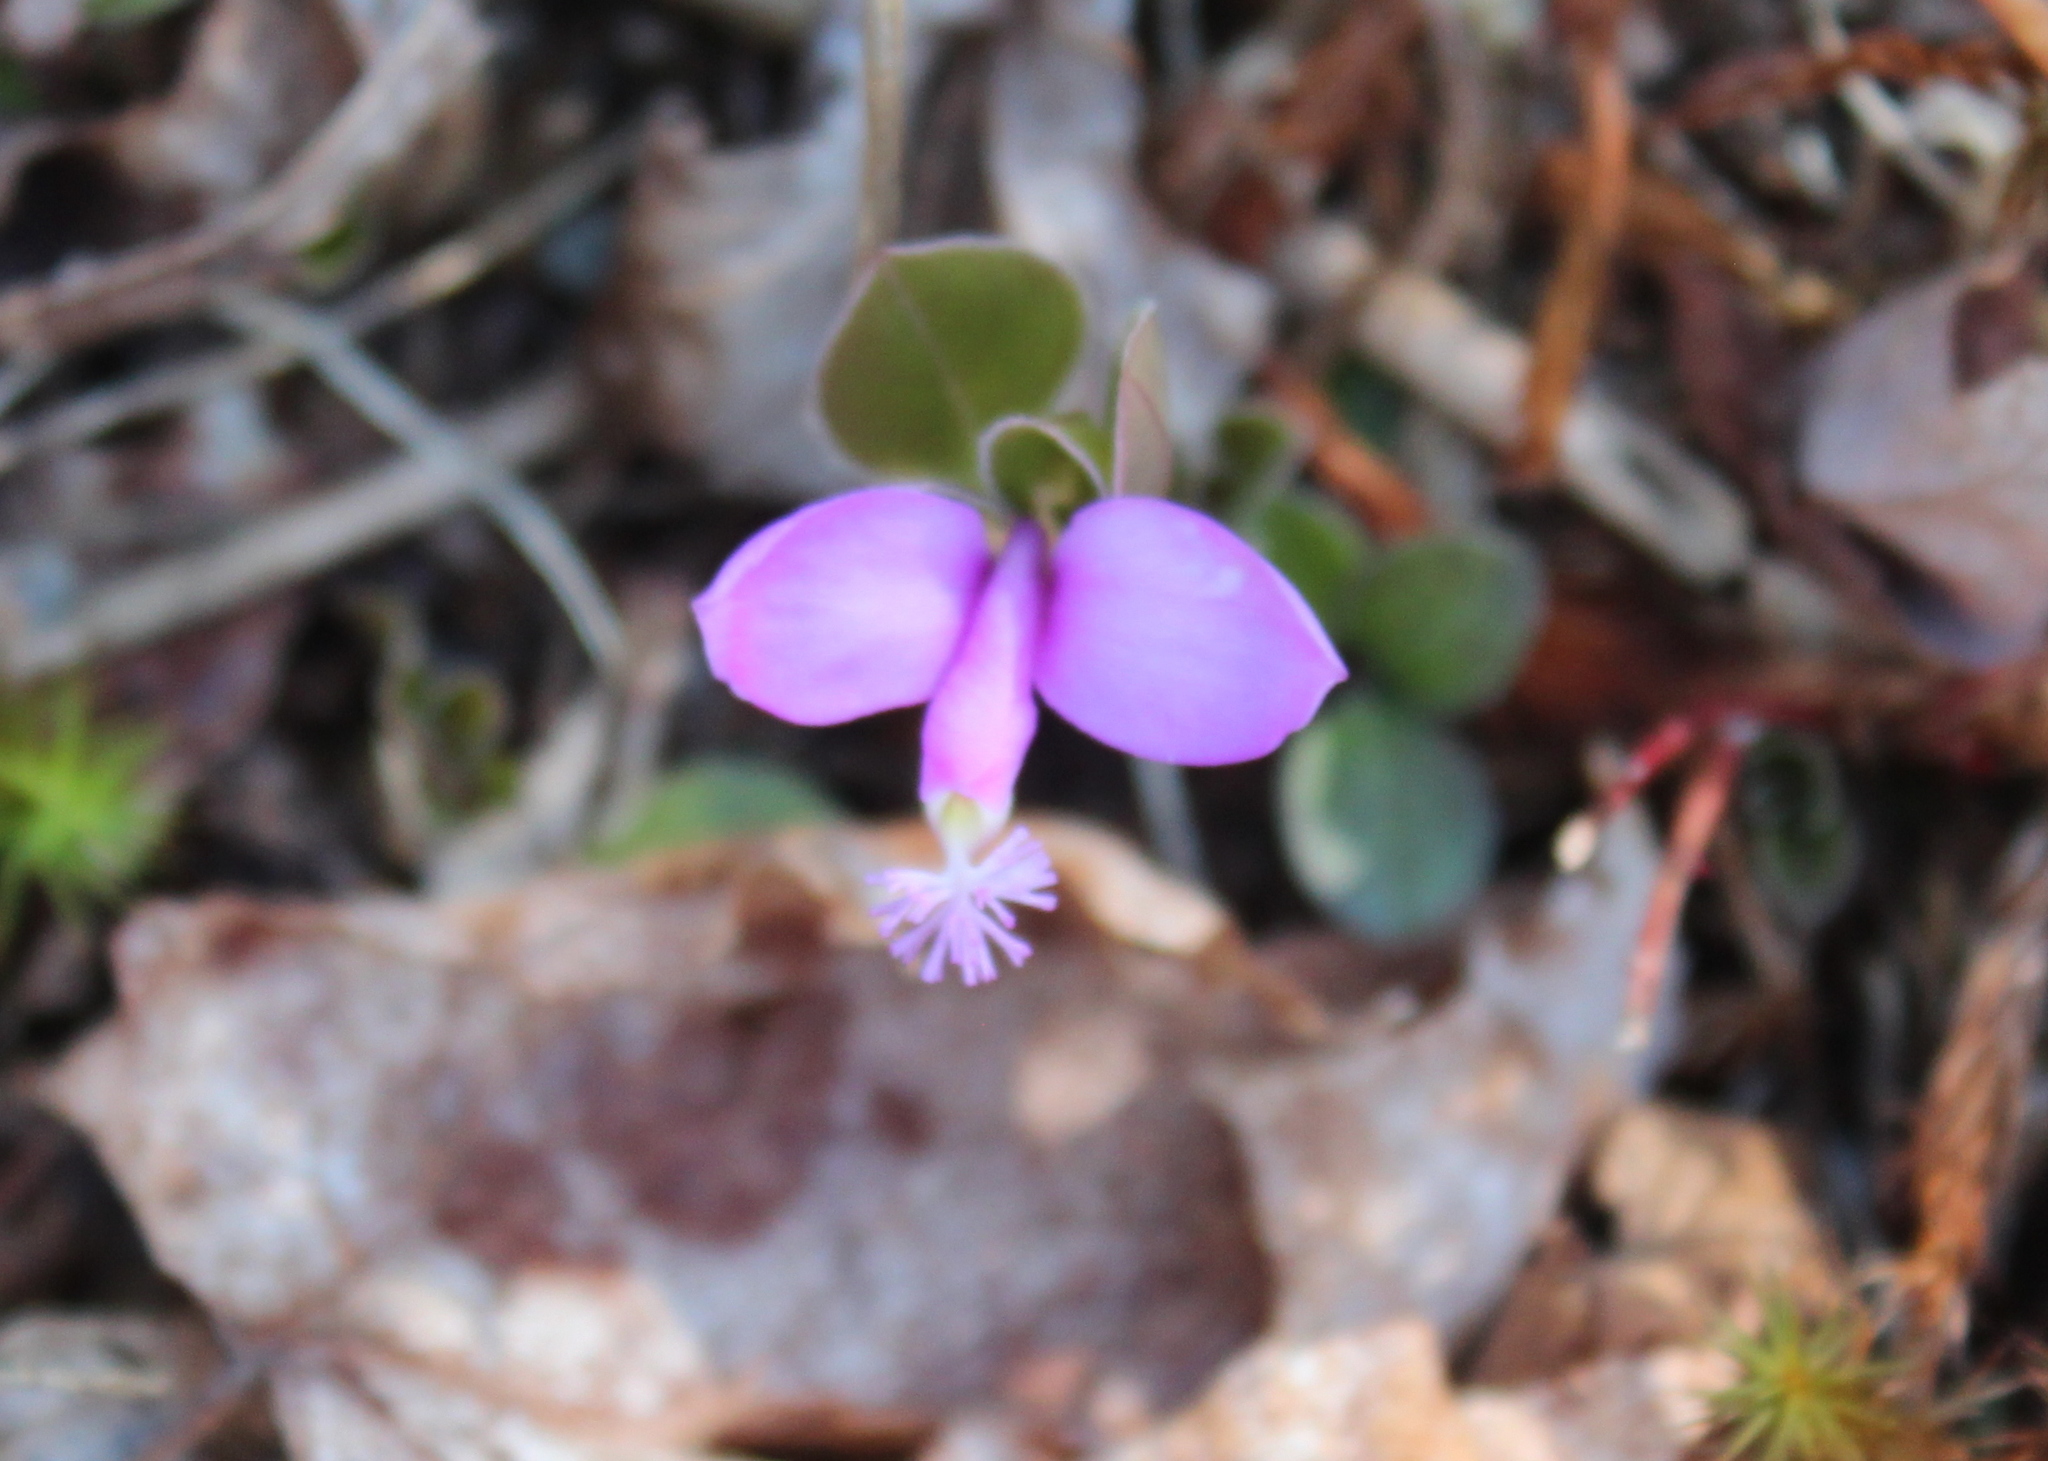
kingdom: Plantae
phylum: Tracheophyta
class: Magnoliopsida
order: Fabales
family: Polygalaceae
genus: Polygaloides
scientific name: Polygaloides paucifolia
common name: Bird-on-the-wing
